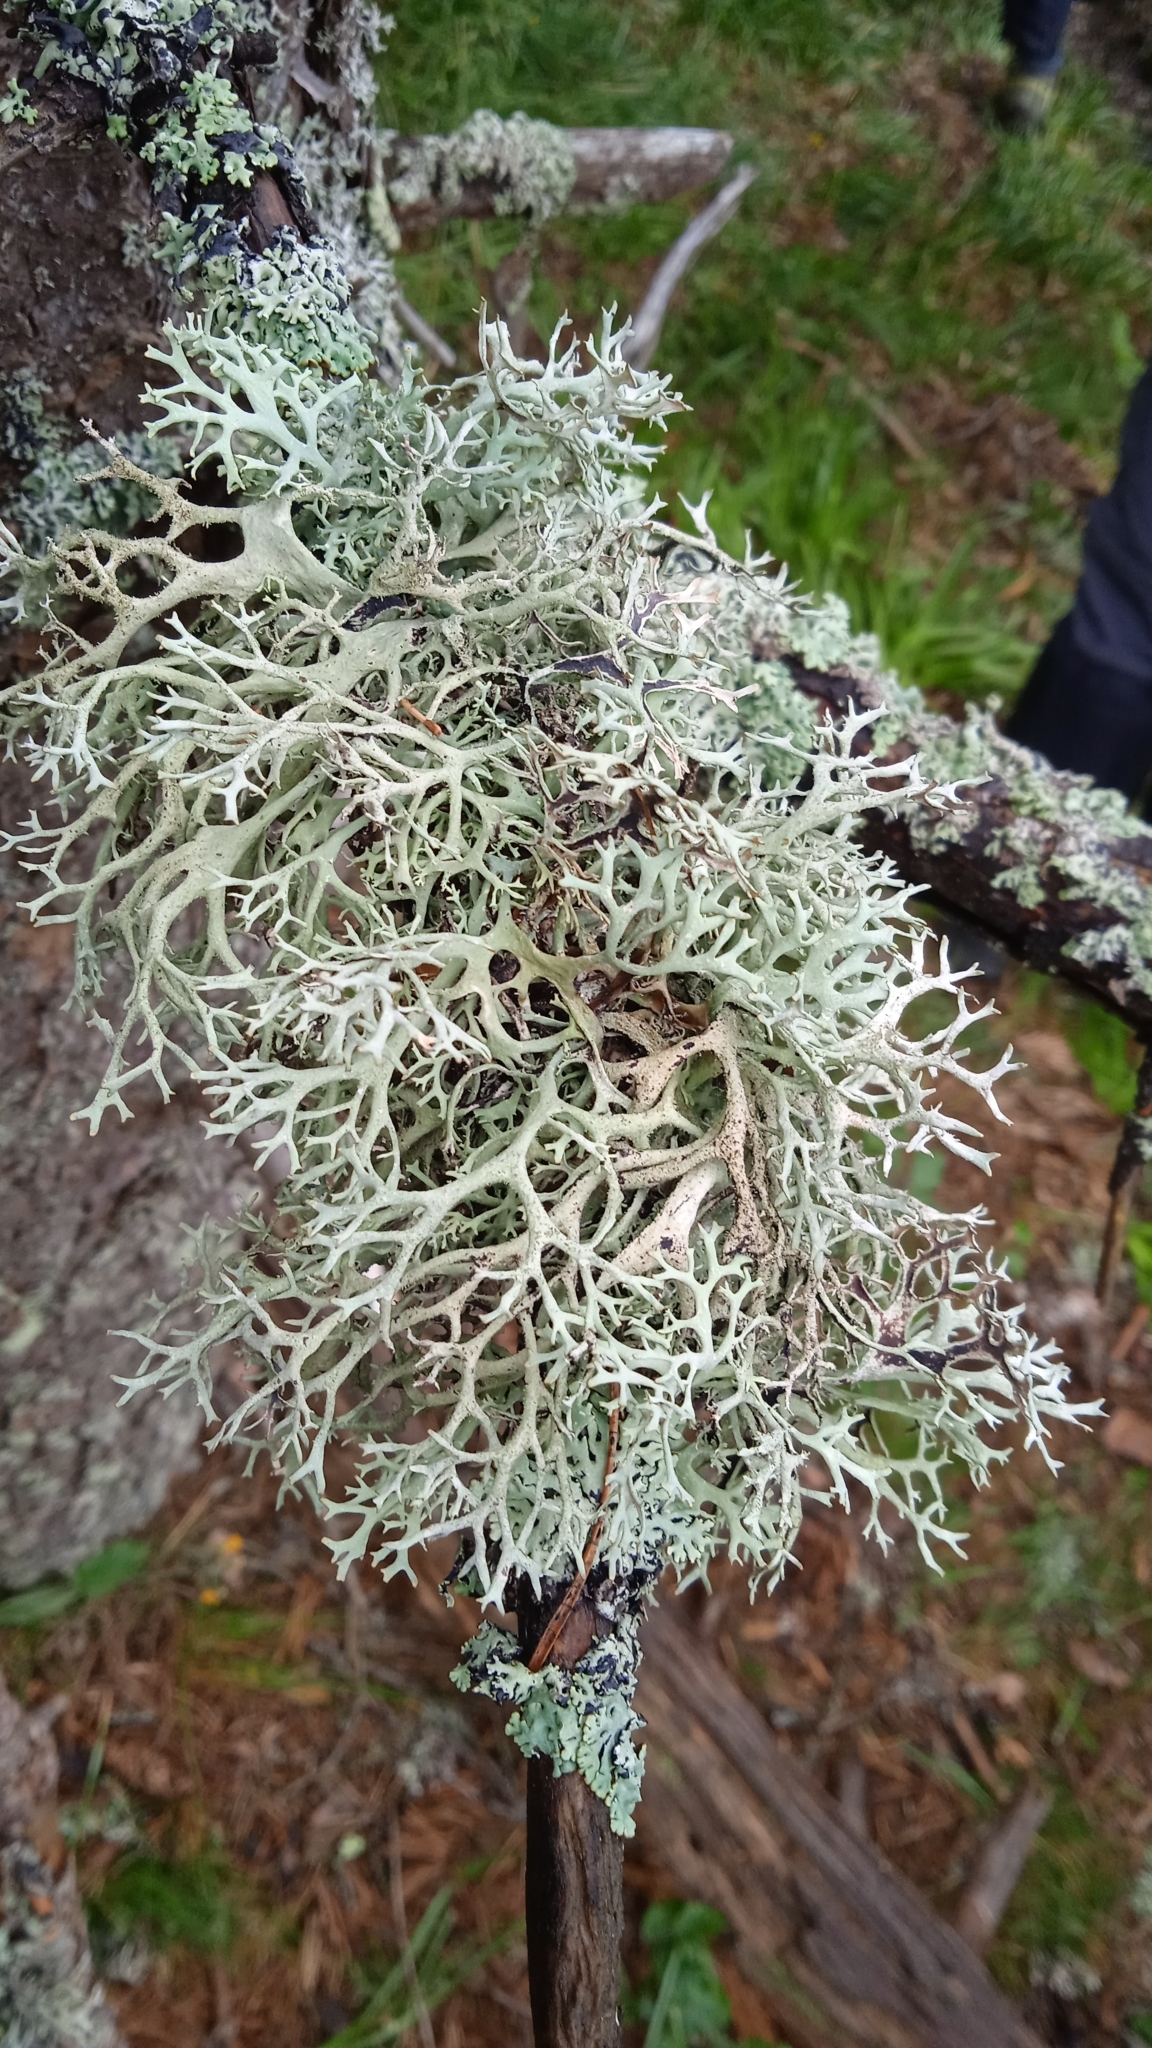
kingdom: Fungi
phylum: Ascomycota
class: Lecanoromycetes
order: Lecanorales
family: Parmeliaceae
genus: Pseudevernia
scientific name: Pseudevernia furfuracea
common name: Tree moss
